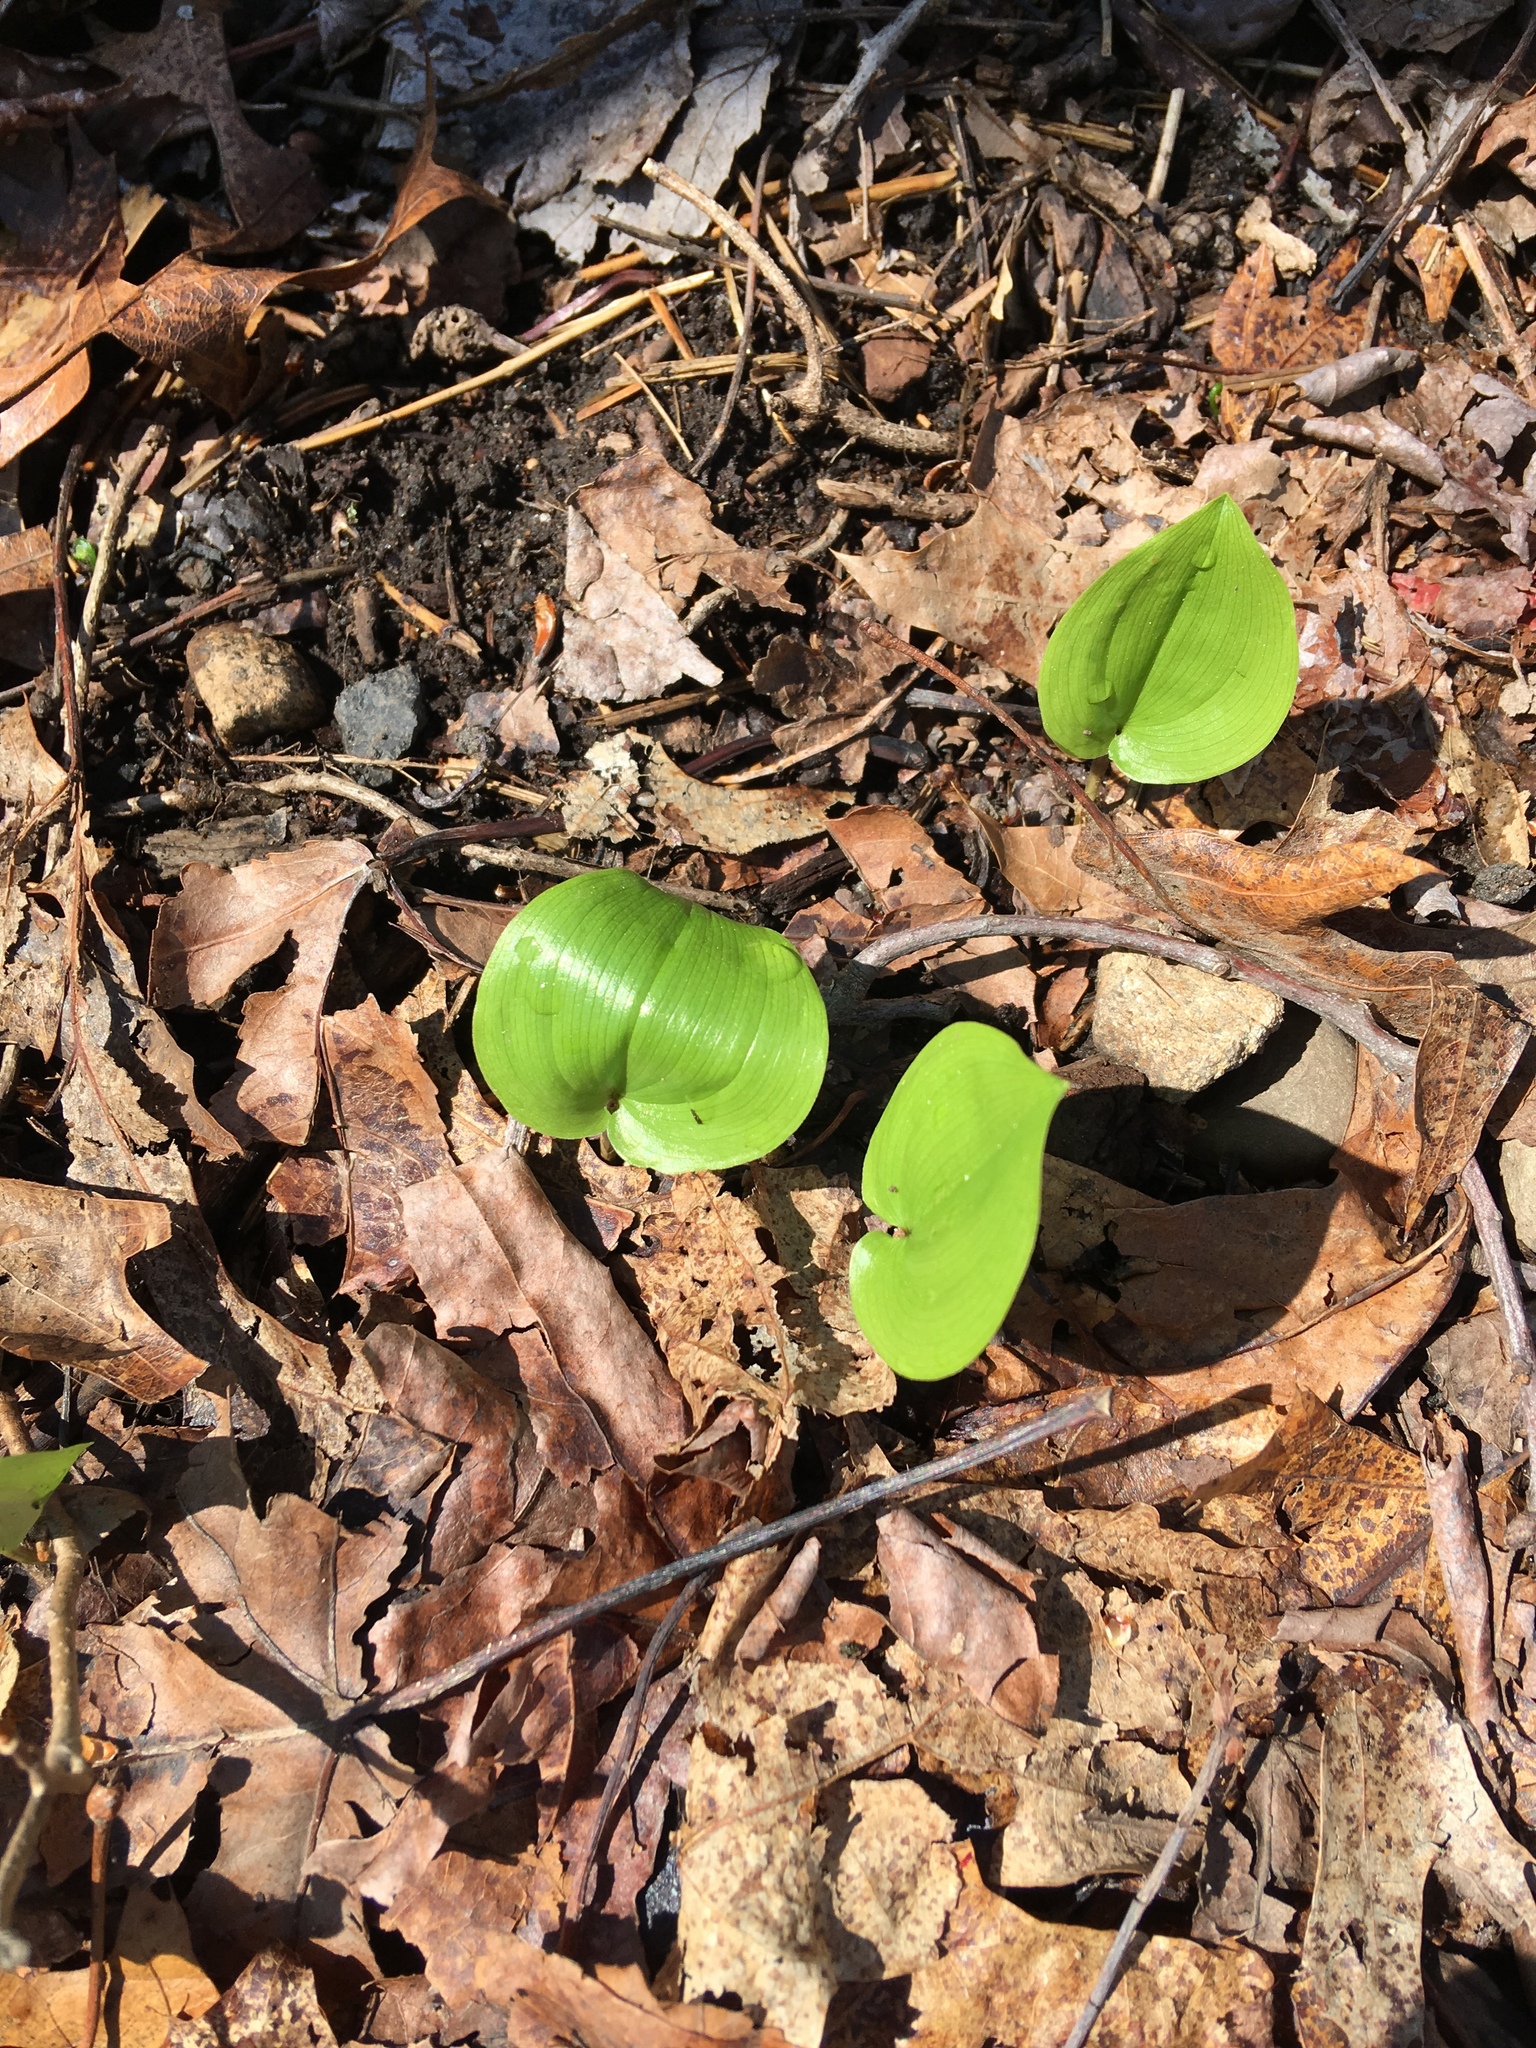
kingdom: Plantae
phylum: Tracheophyta
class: Liliopsida
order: Asparagales
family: Asparagaceae
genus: Maianthemum
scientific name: Maianthemum canadense
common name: False lily-of-the-valley
